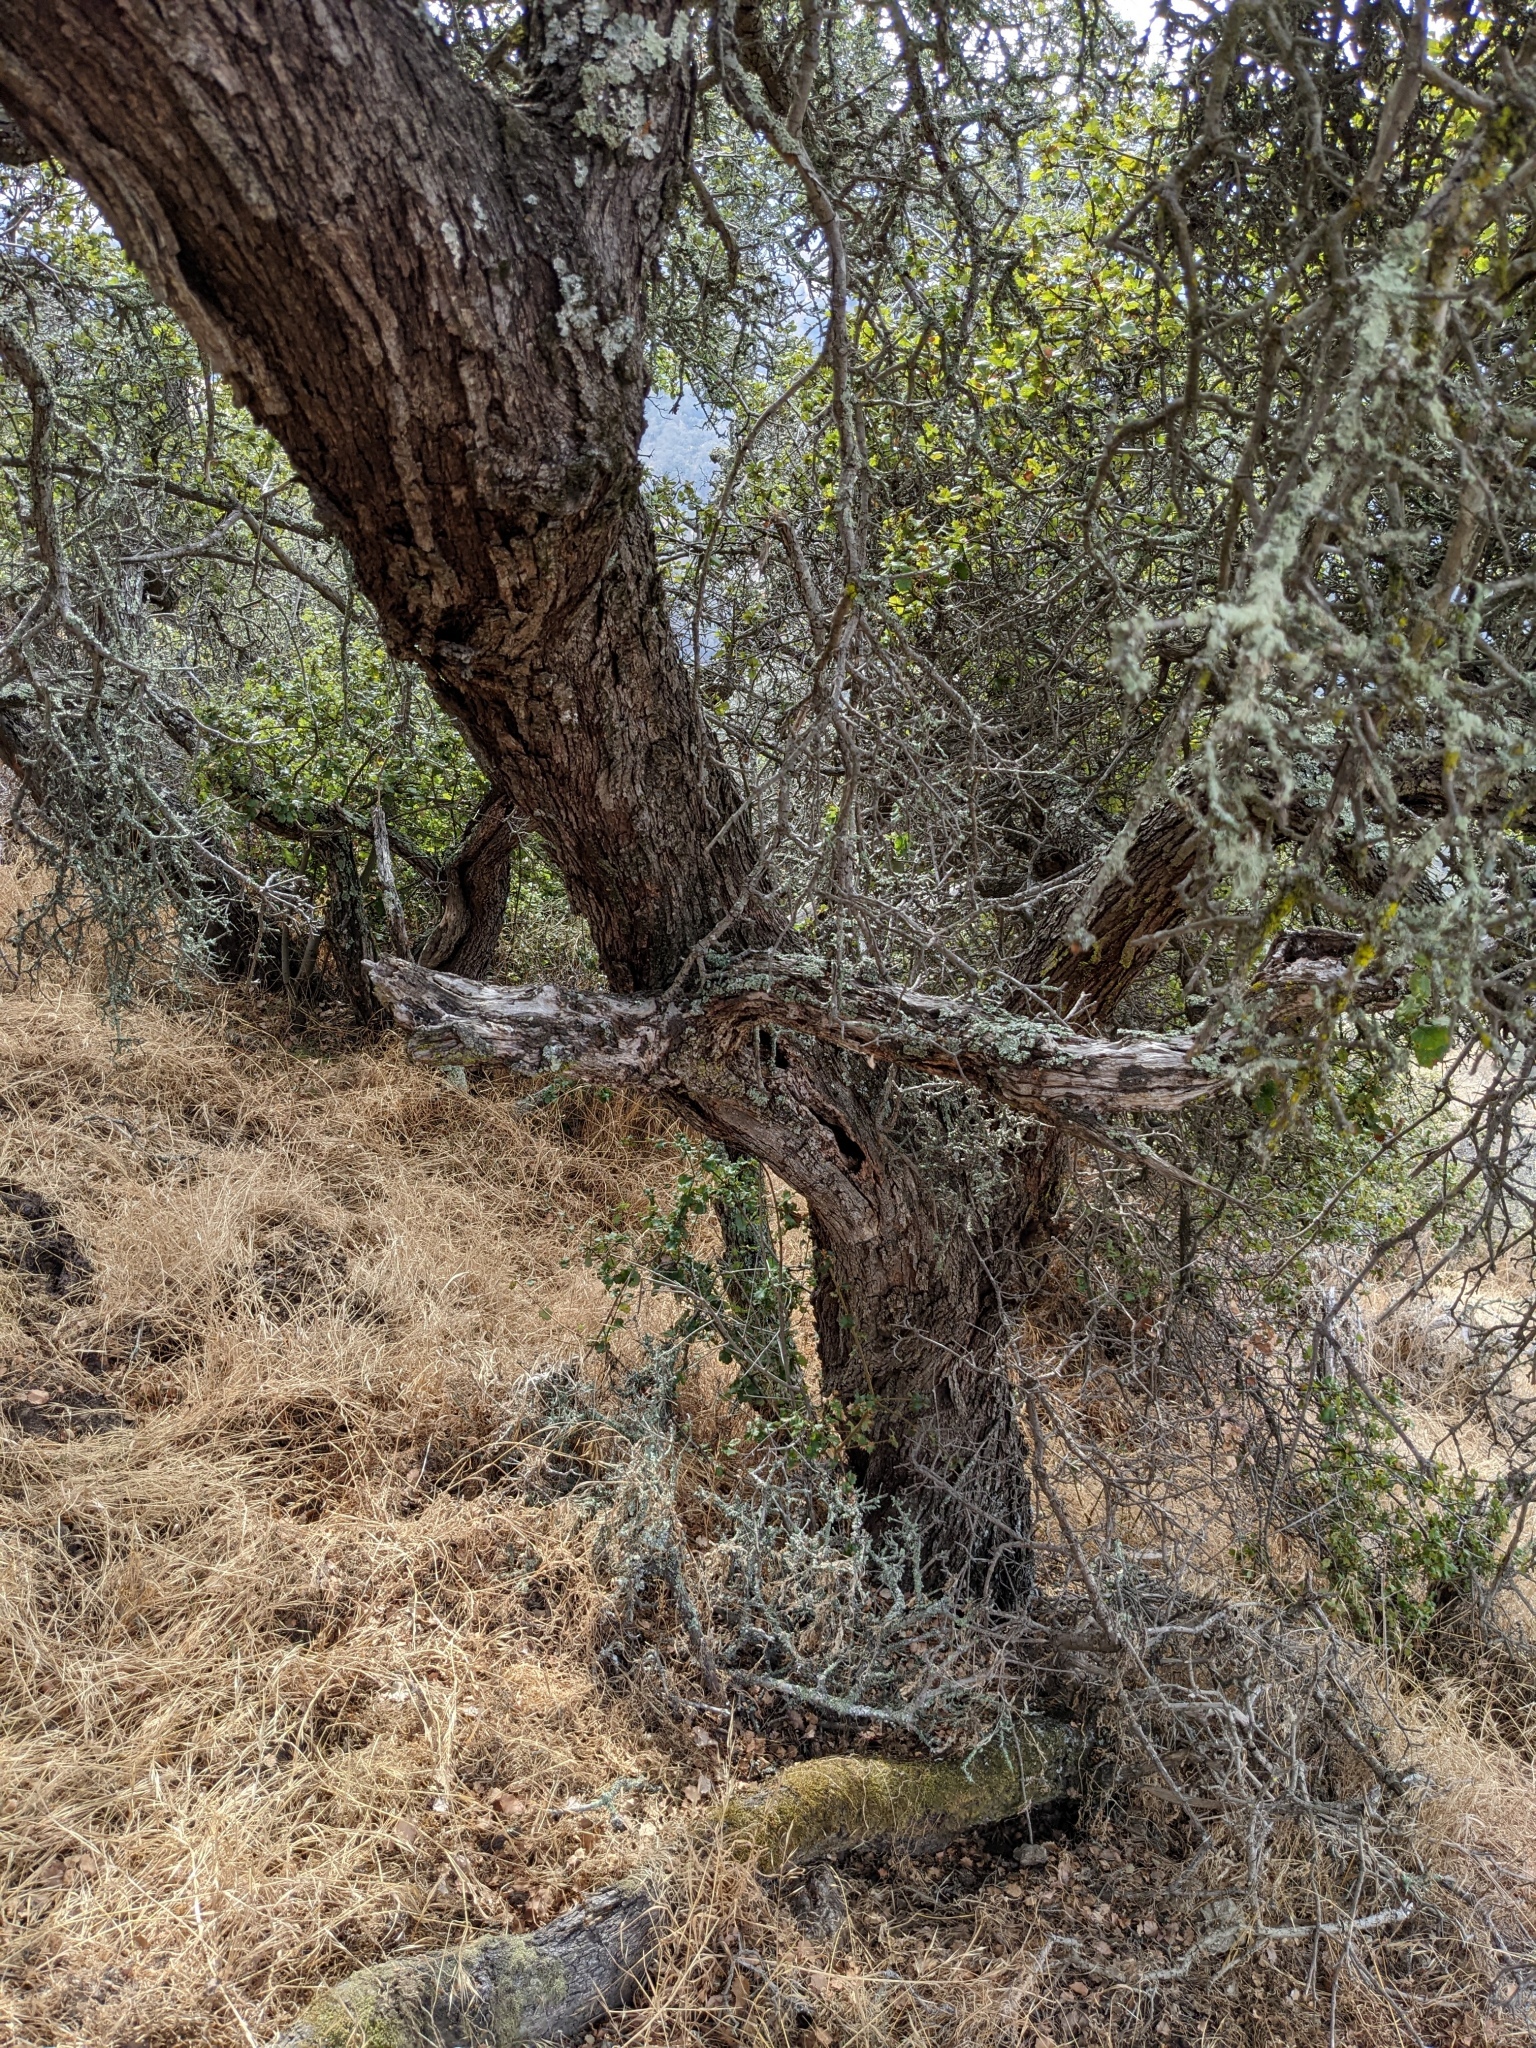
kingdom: Plantae
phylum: Tracheophyta
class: Magnoliopsida
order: Fagales
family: Fagaceae
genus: Quercus
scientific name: Quercus palmeri
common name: Dunn oak
